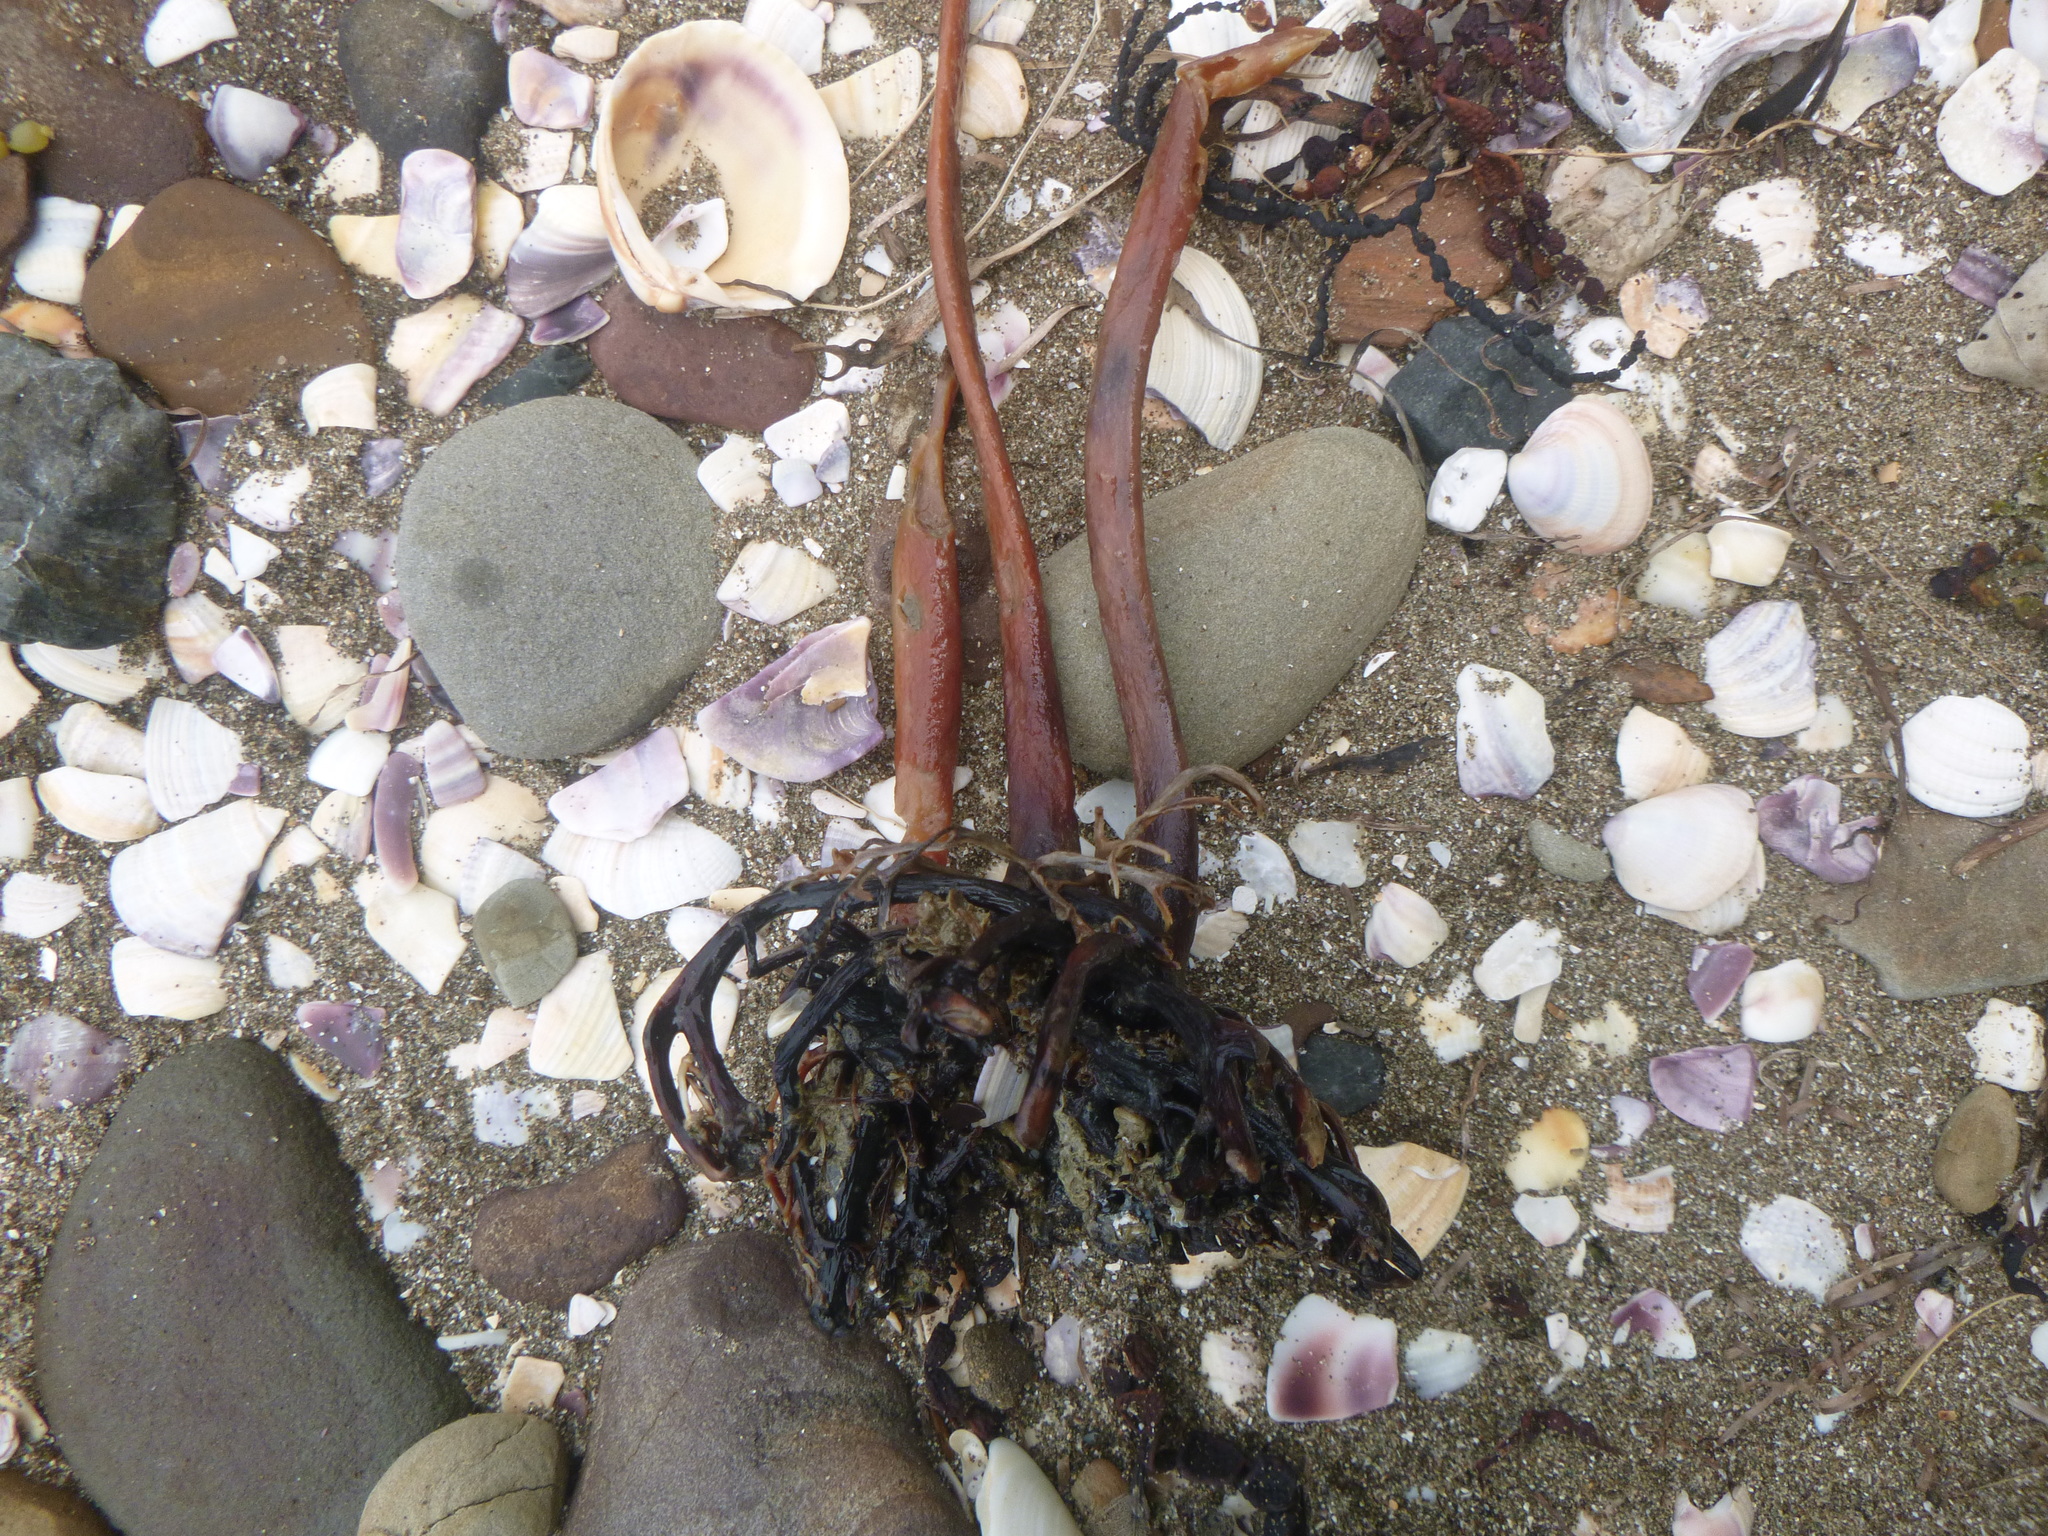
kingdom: Chromista
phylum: Ochrophyta
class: Phaeophyceae
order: Laminariales
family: Lessoniaceae
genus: Ecklonia
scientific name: Ecklonia radiata
